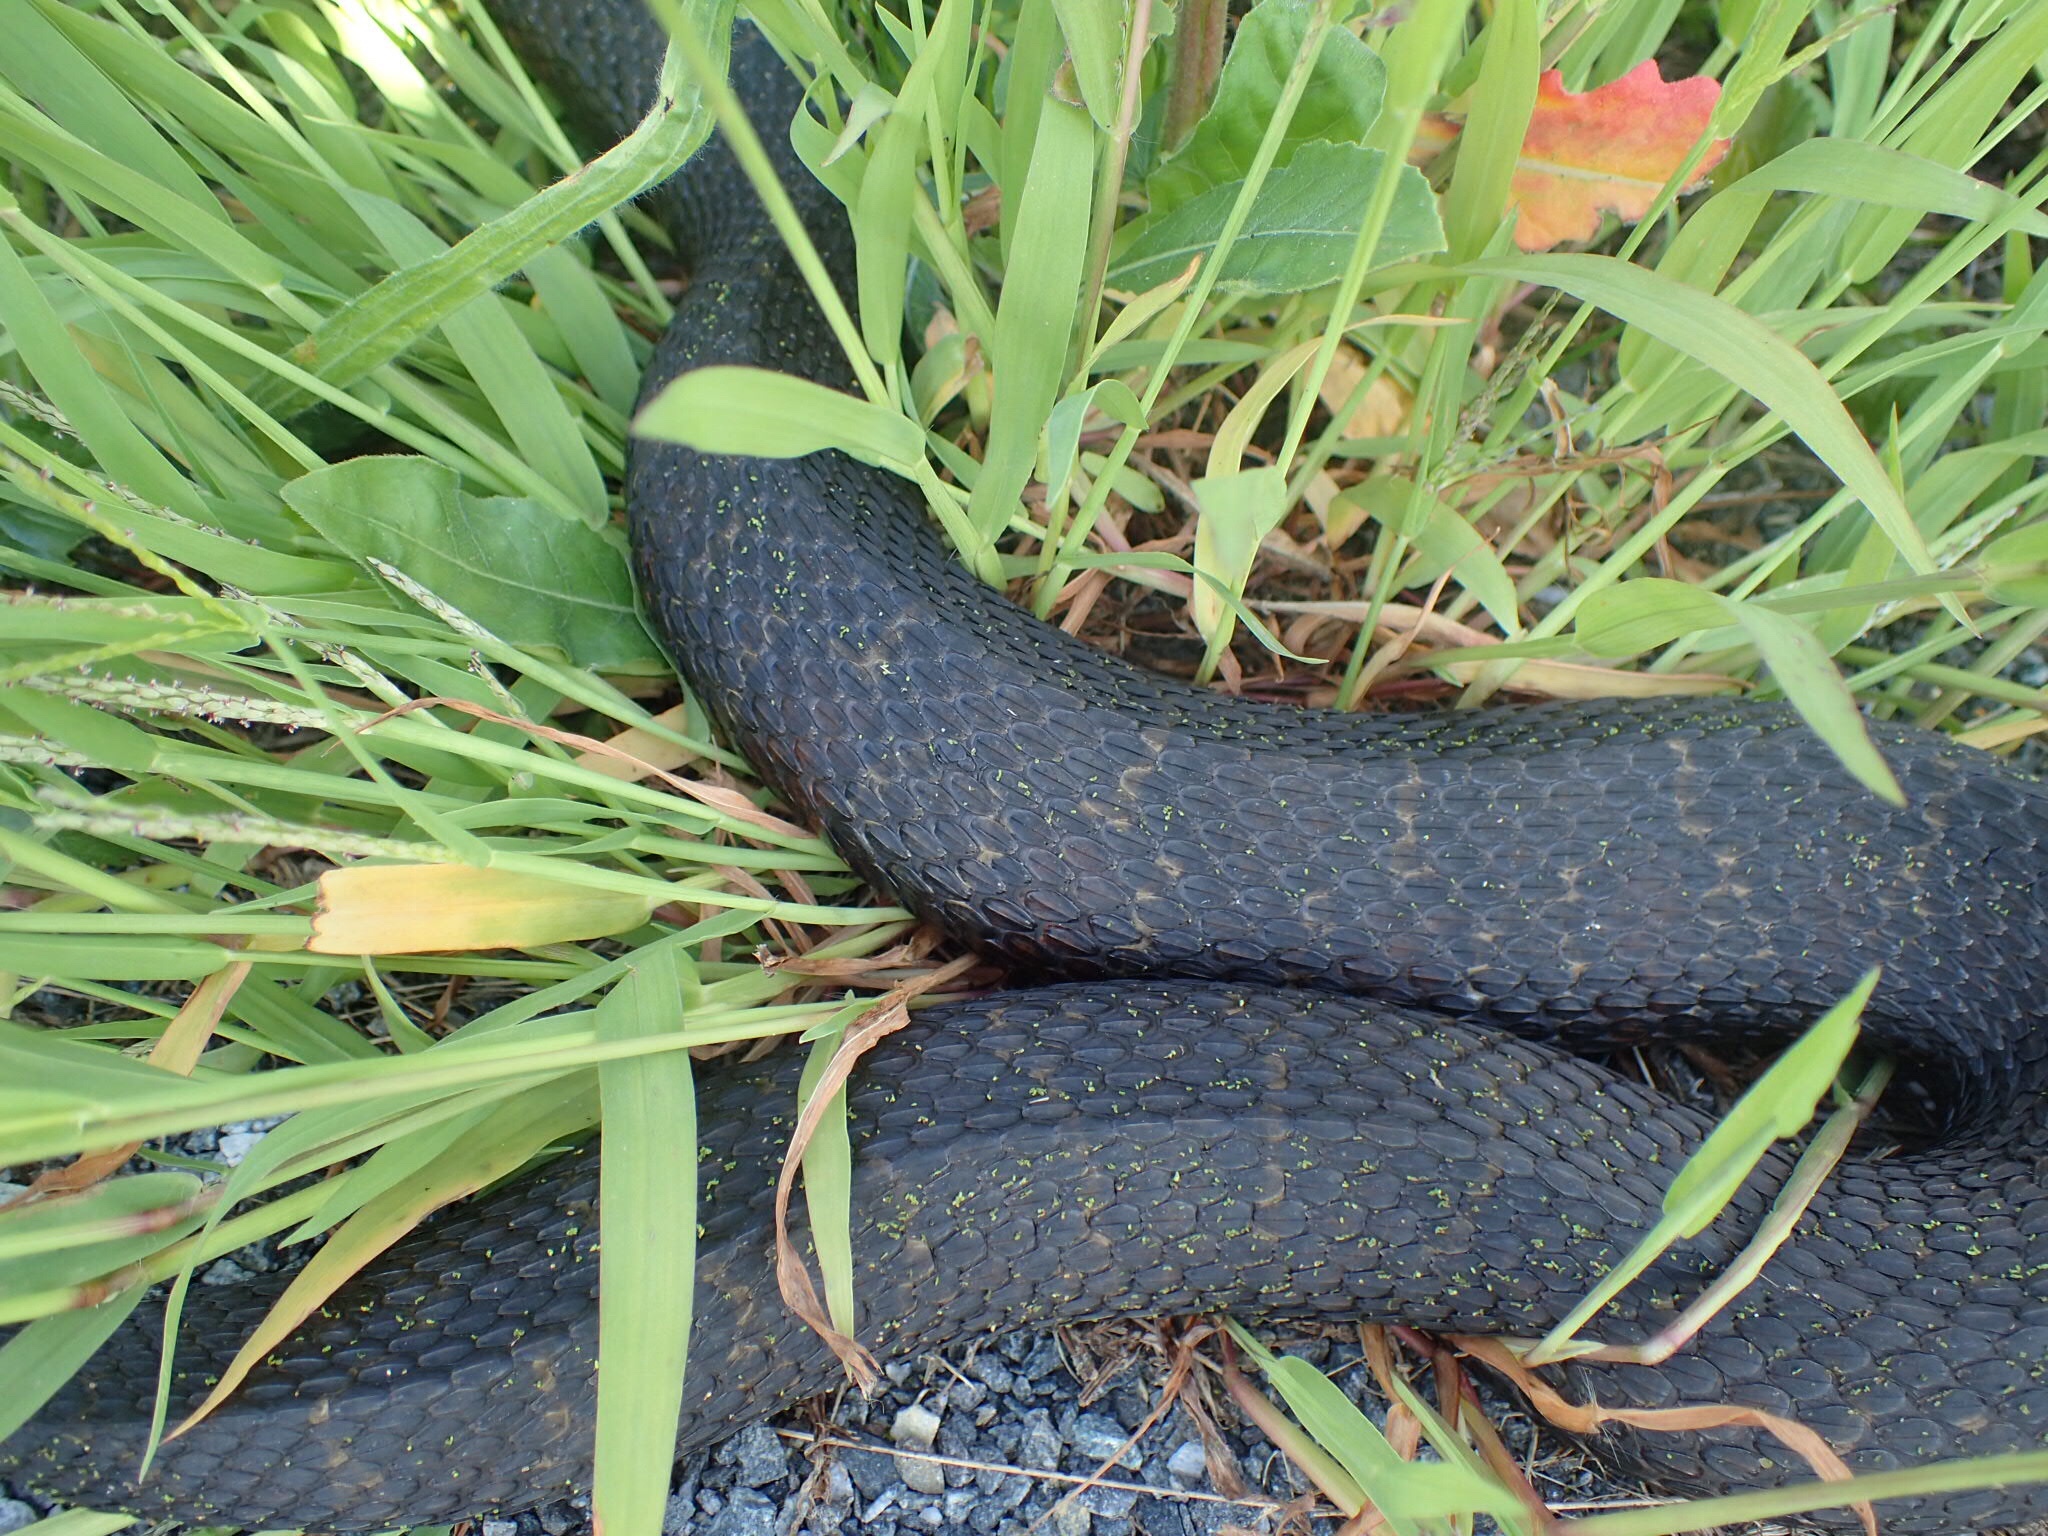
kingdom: Animalia
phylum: Chordata
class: Squamata
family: Colubridae
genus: Nerodia
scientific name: Nerodia sipedon
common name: Northern water snake
